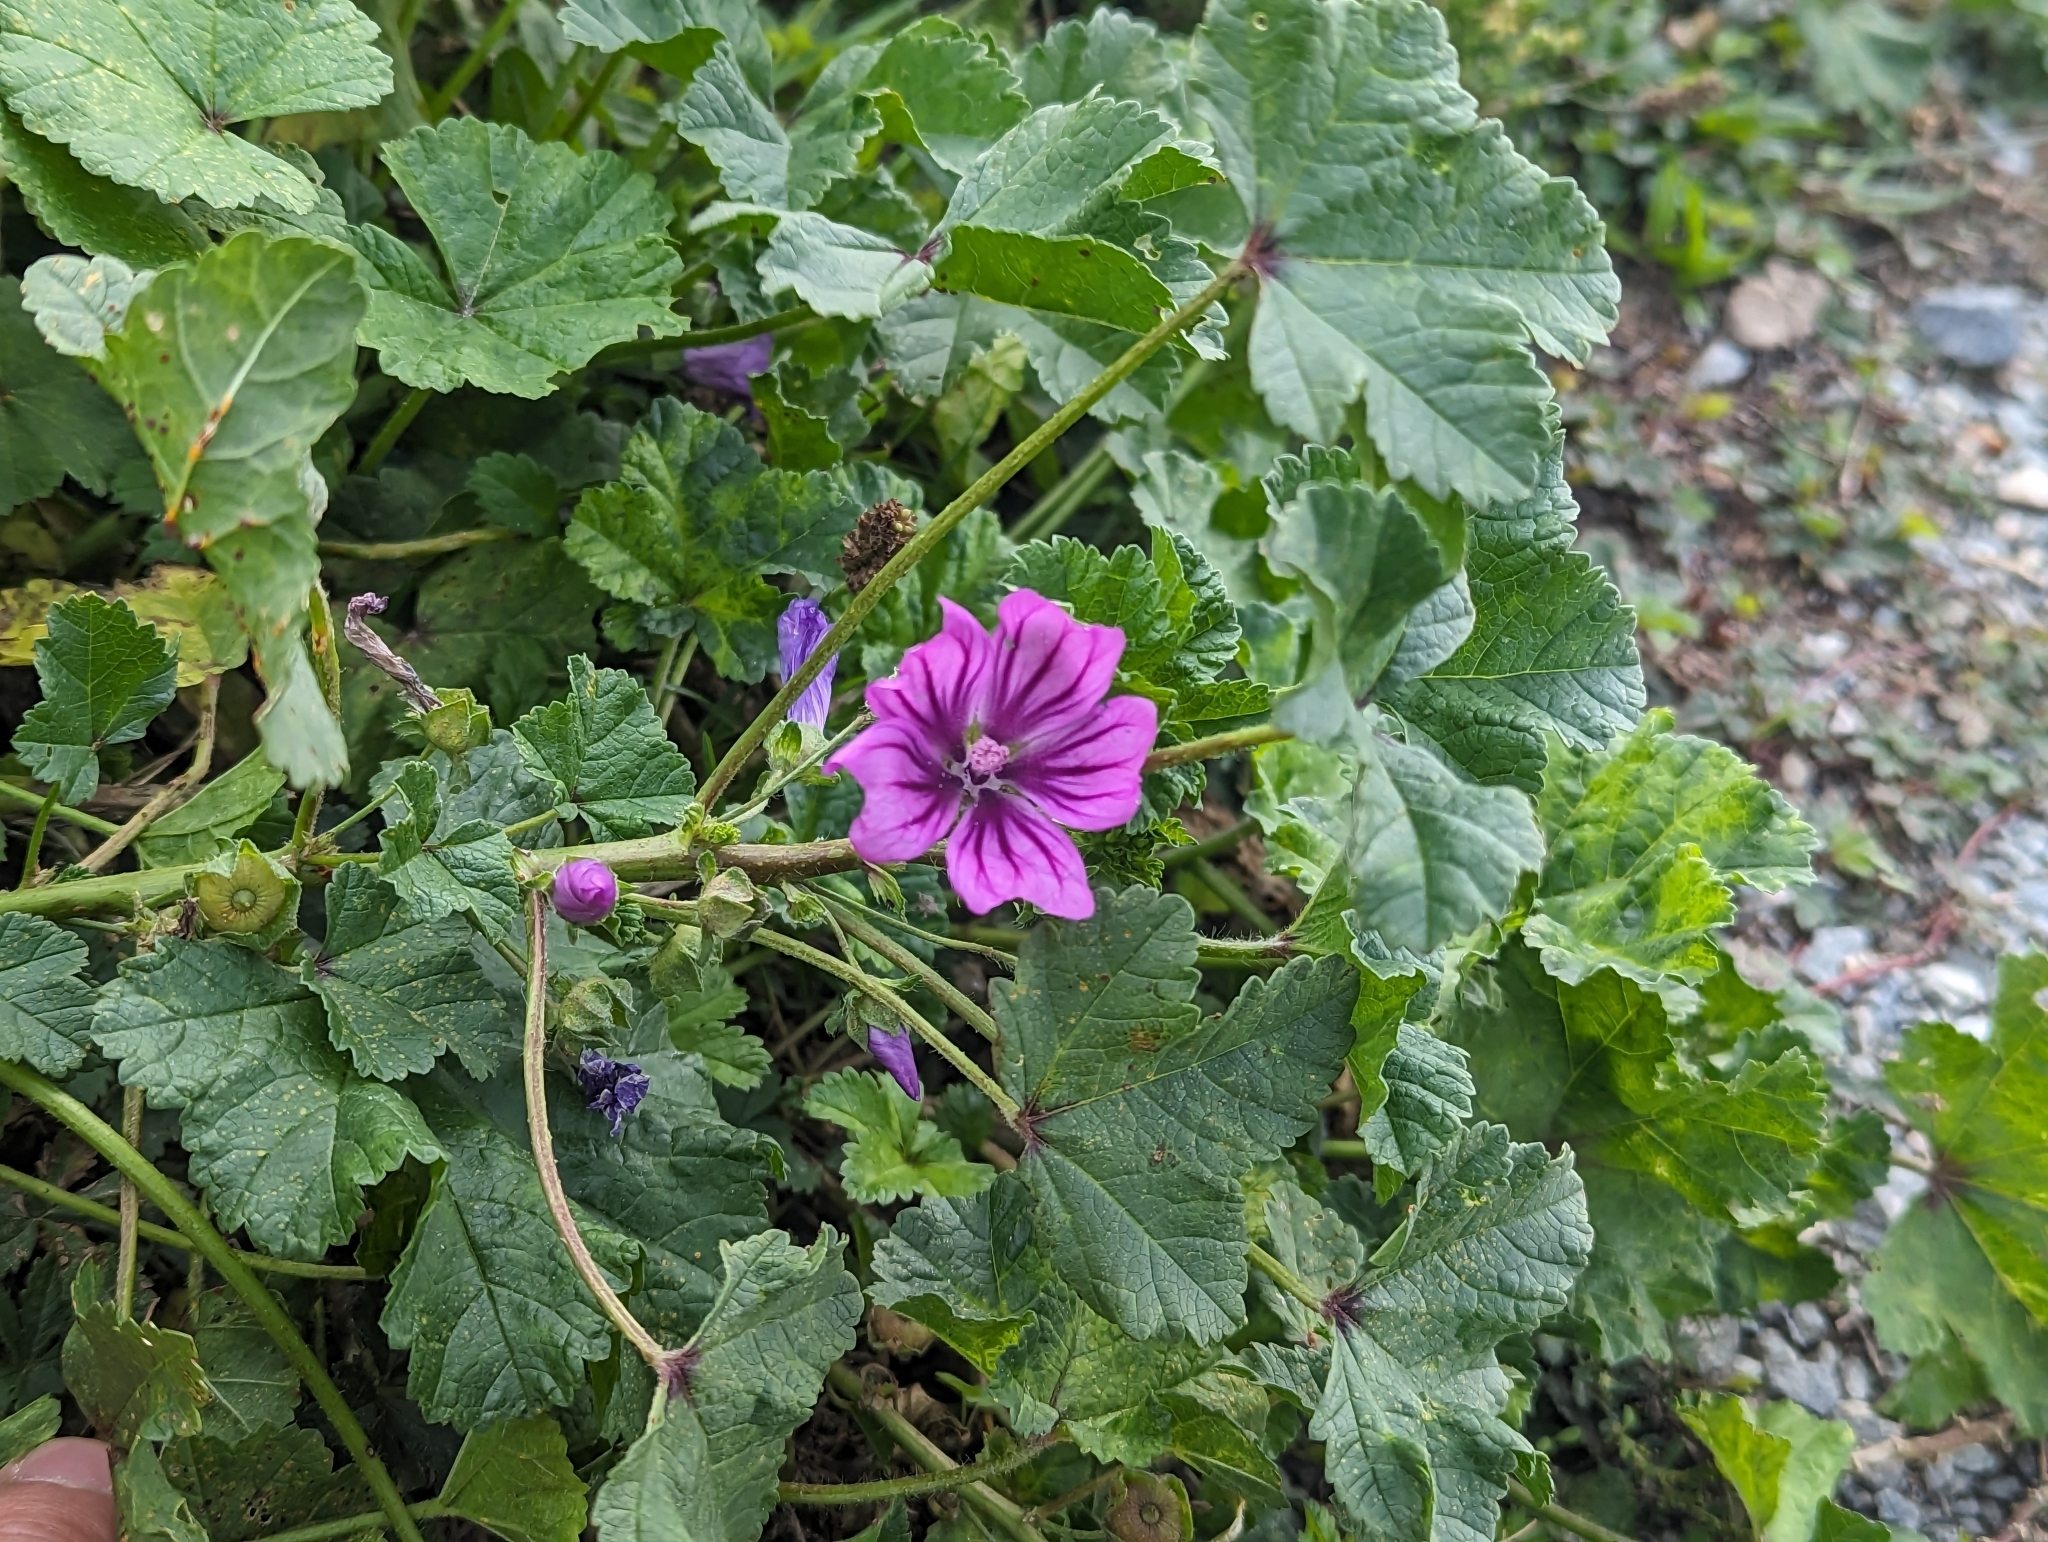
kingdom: Plantae
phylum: Tracheophyta
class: Magnoliopsida
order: Malvales
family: Malvaceae
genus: Malva
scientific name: Malva sylvestris
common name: Common mallow
